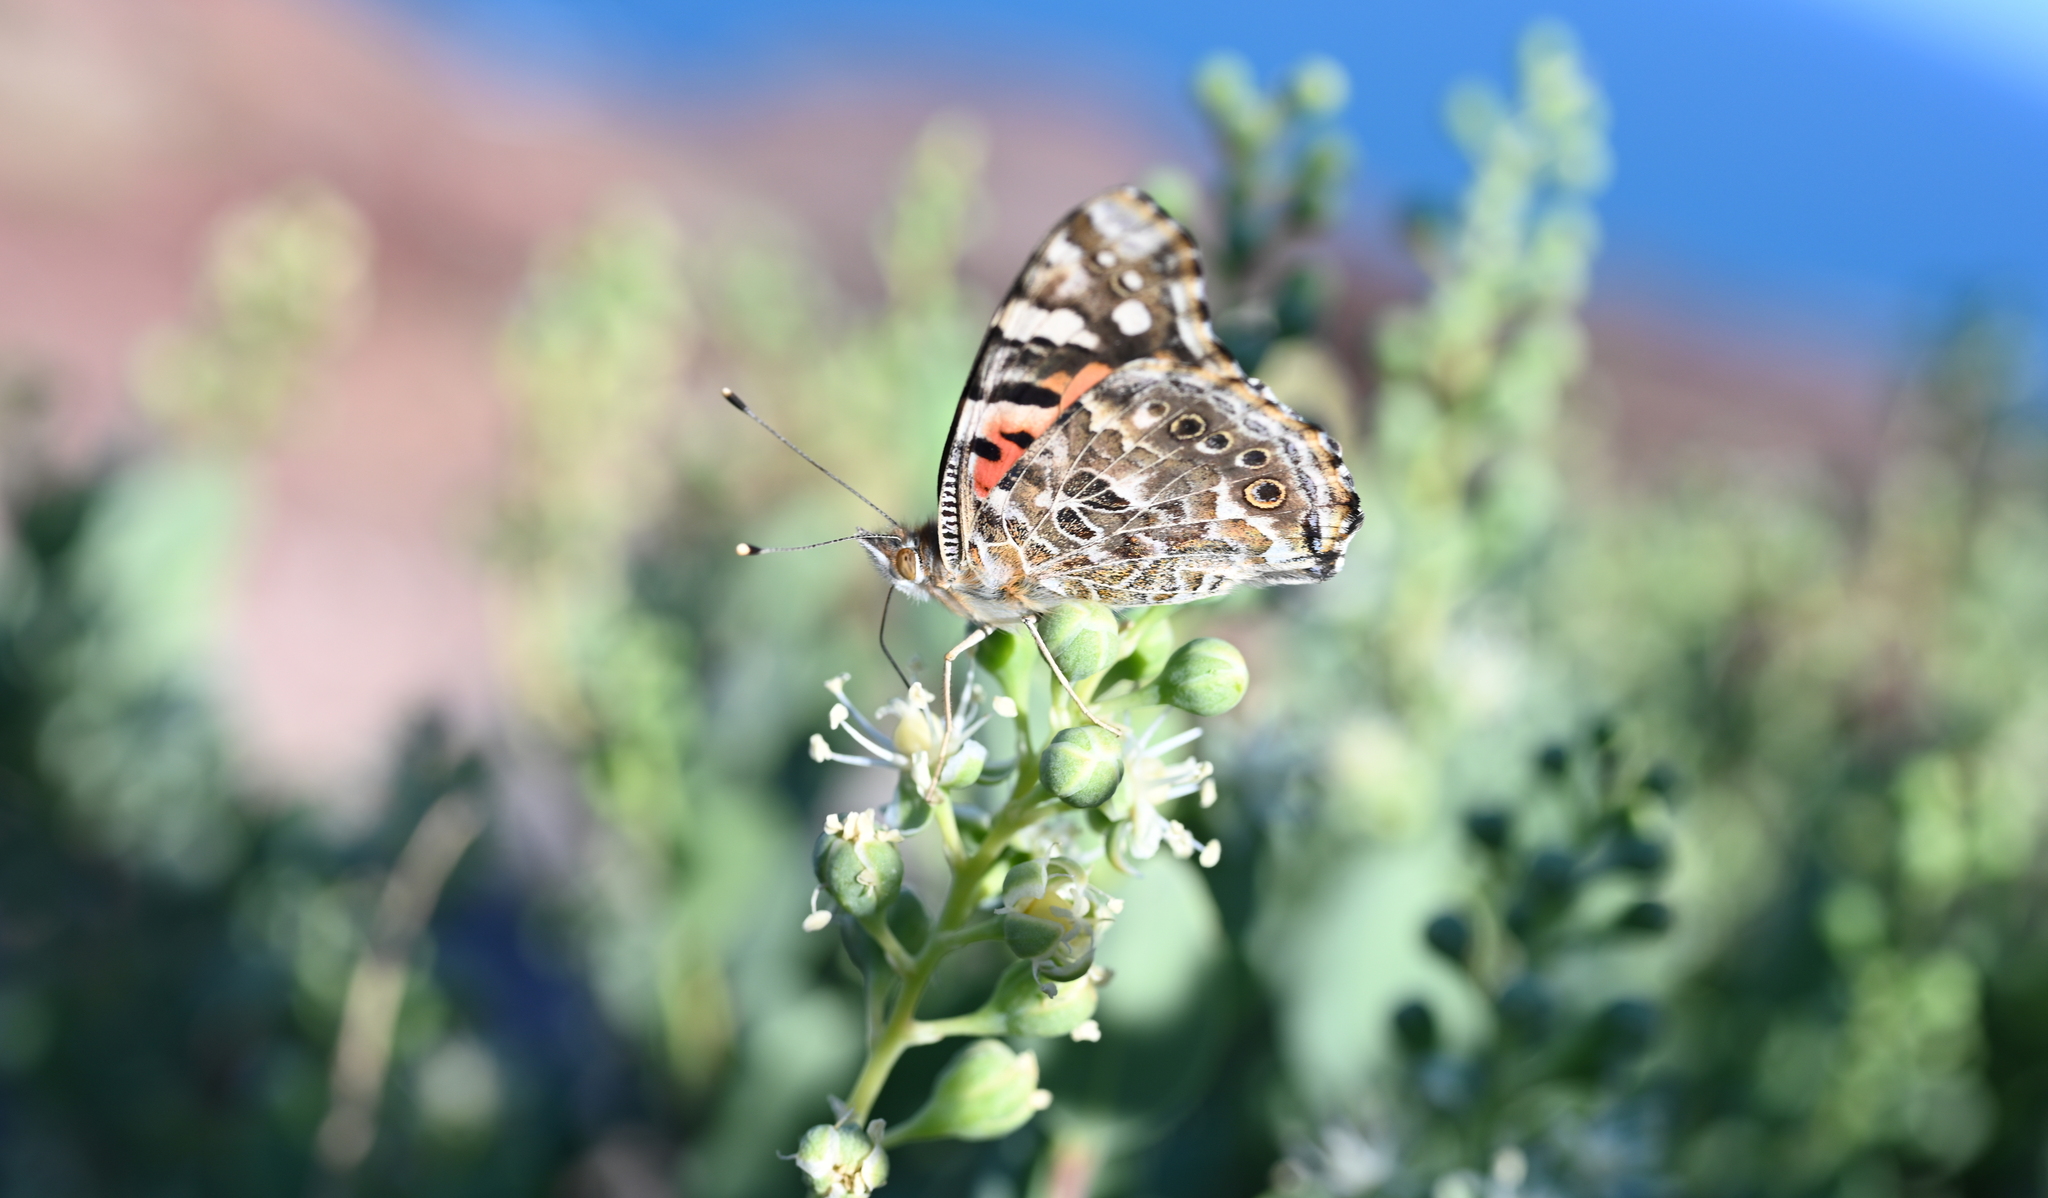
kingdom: Animalia
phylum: Arthropoda
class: Insecta
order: Lepidoptera
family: Nymphalidae
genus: Vanessa
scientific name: Vanessa cardui
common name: Painted lady
